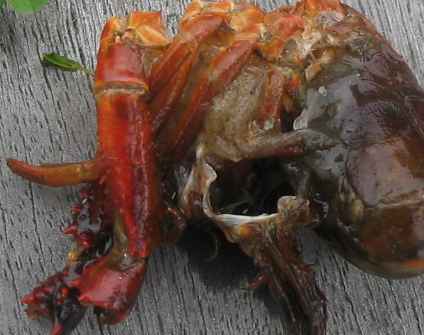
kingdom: Animalia
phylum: Arthropoda
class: Malacostraca
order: Decapoda
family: Cambaridae
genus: Procambarus
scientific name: Procambarus clarkii
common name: Red swamp crayfish
